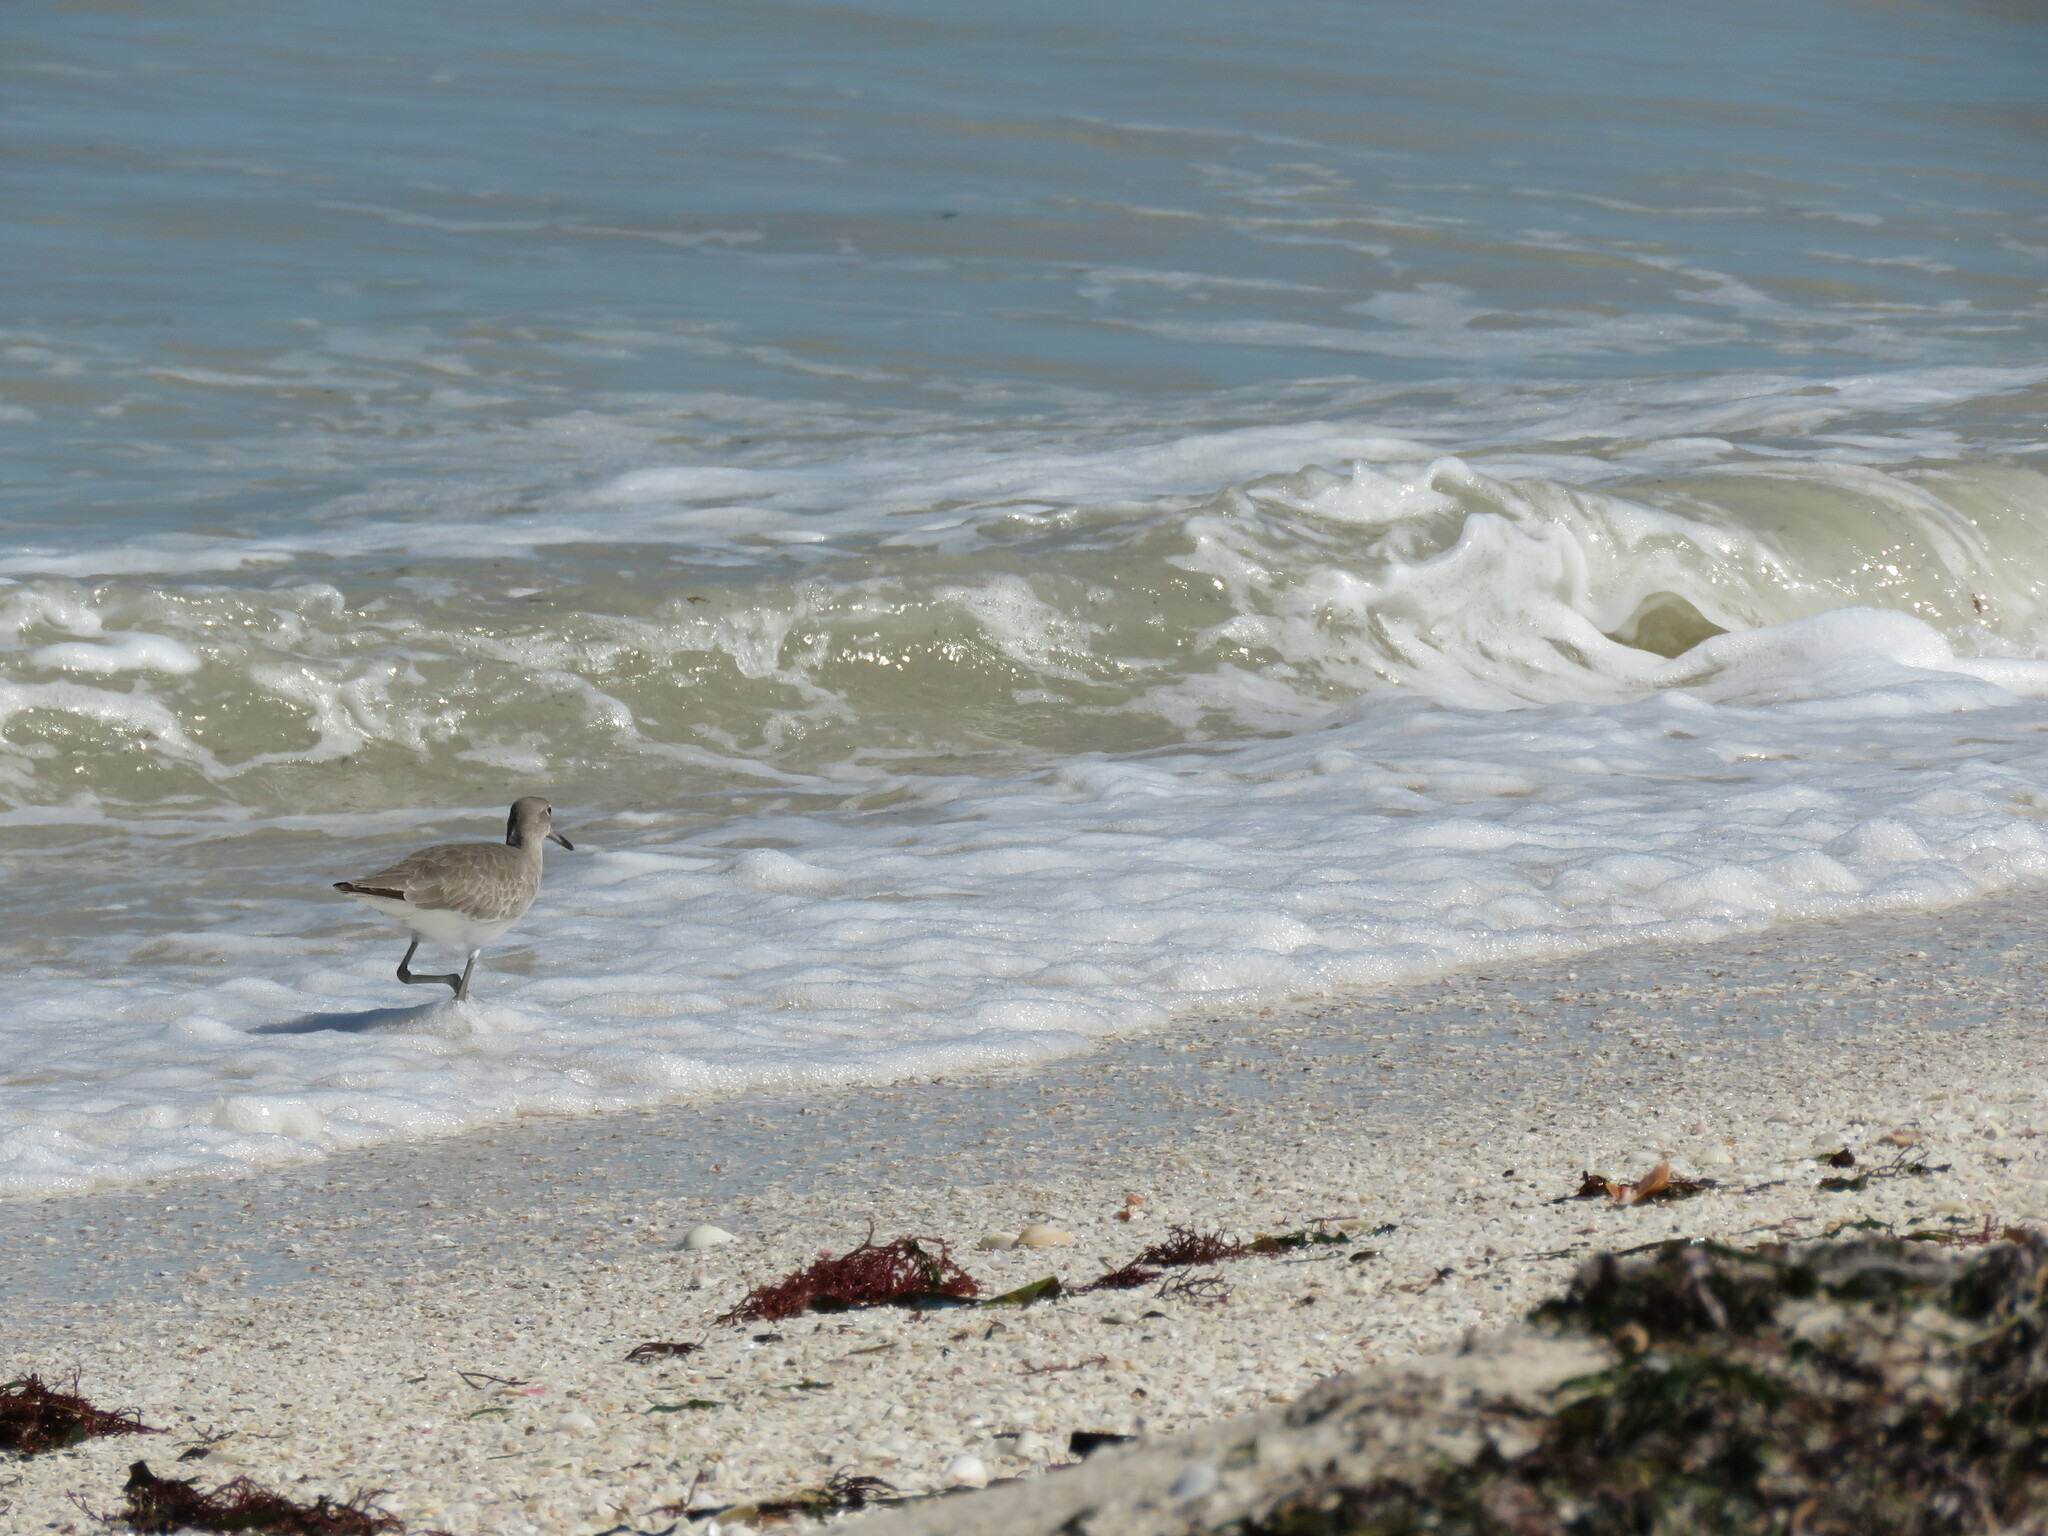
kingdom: Animalia
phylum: Chordata
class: Aves
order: Charadriiformes
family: Scolopacidae
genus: Tringa
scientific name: Tringa semipalmata
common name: Willet
